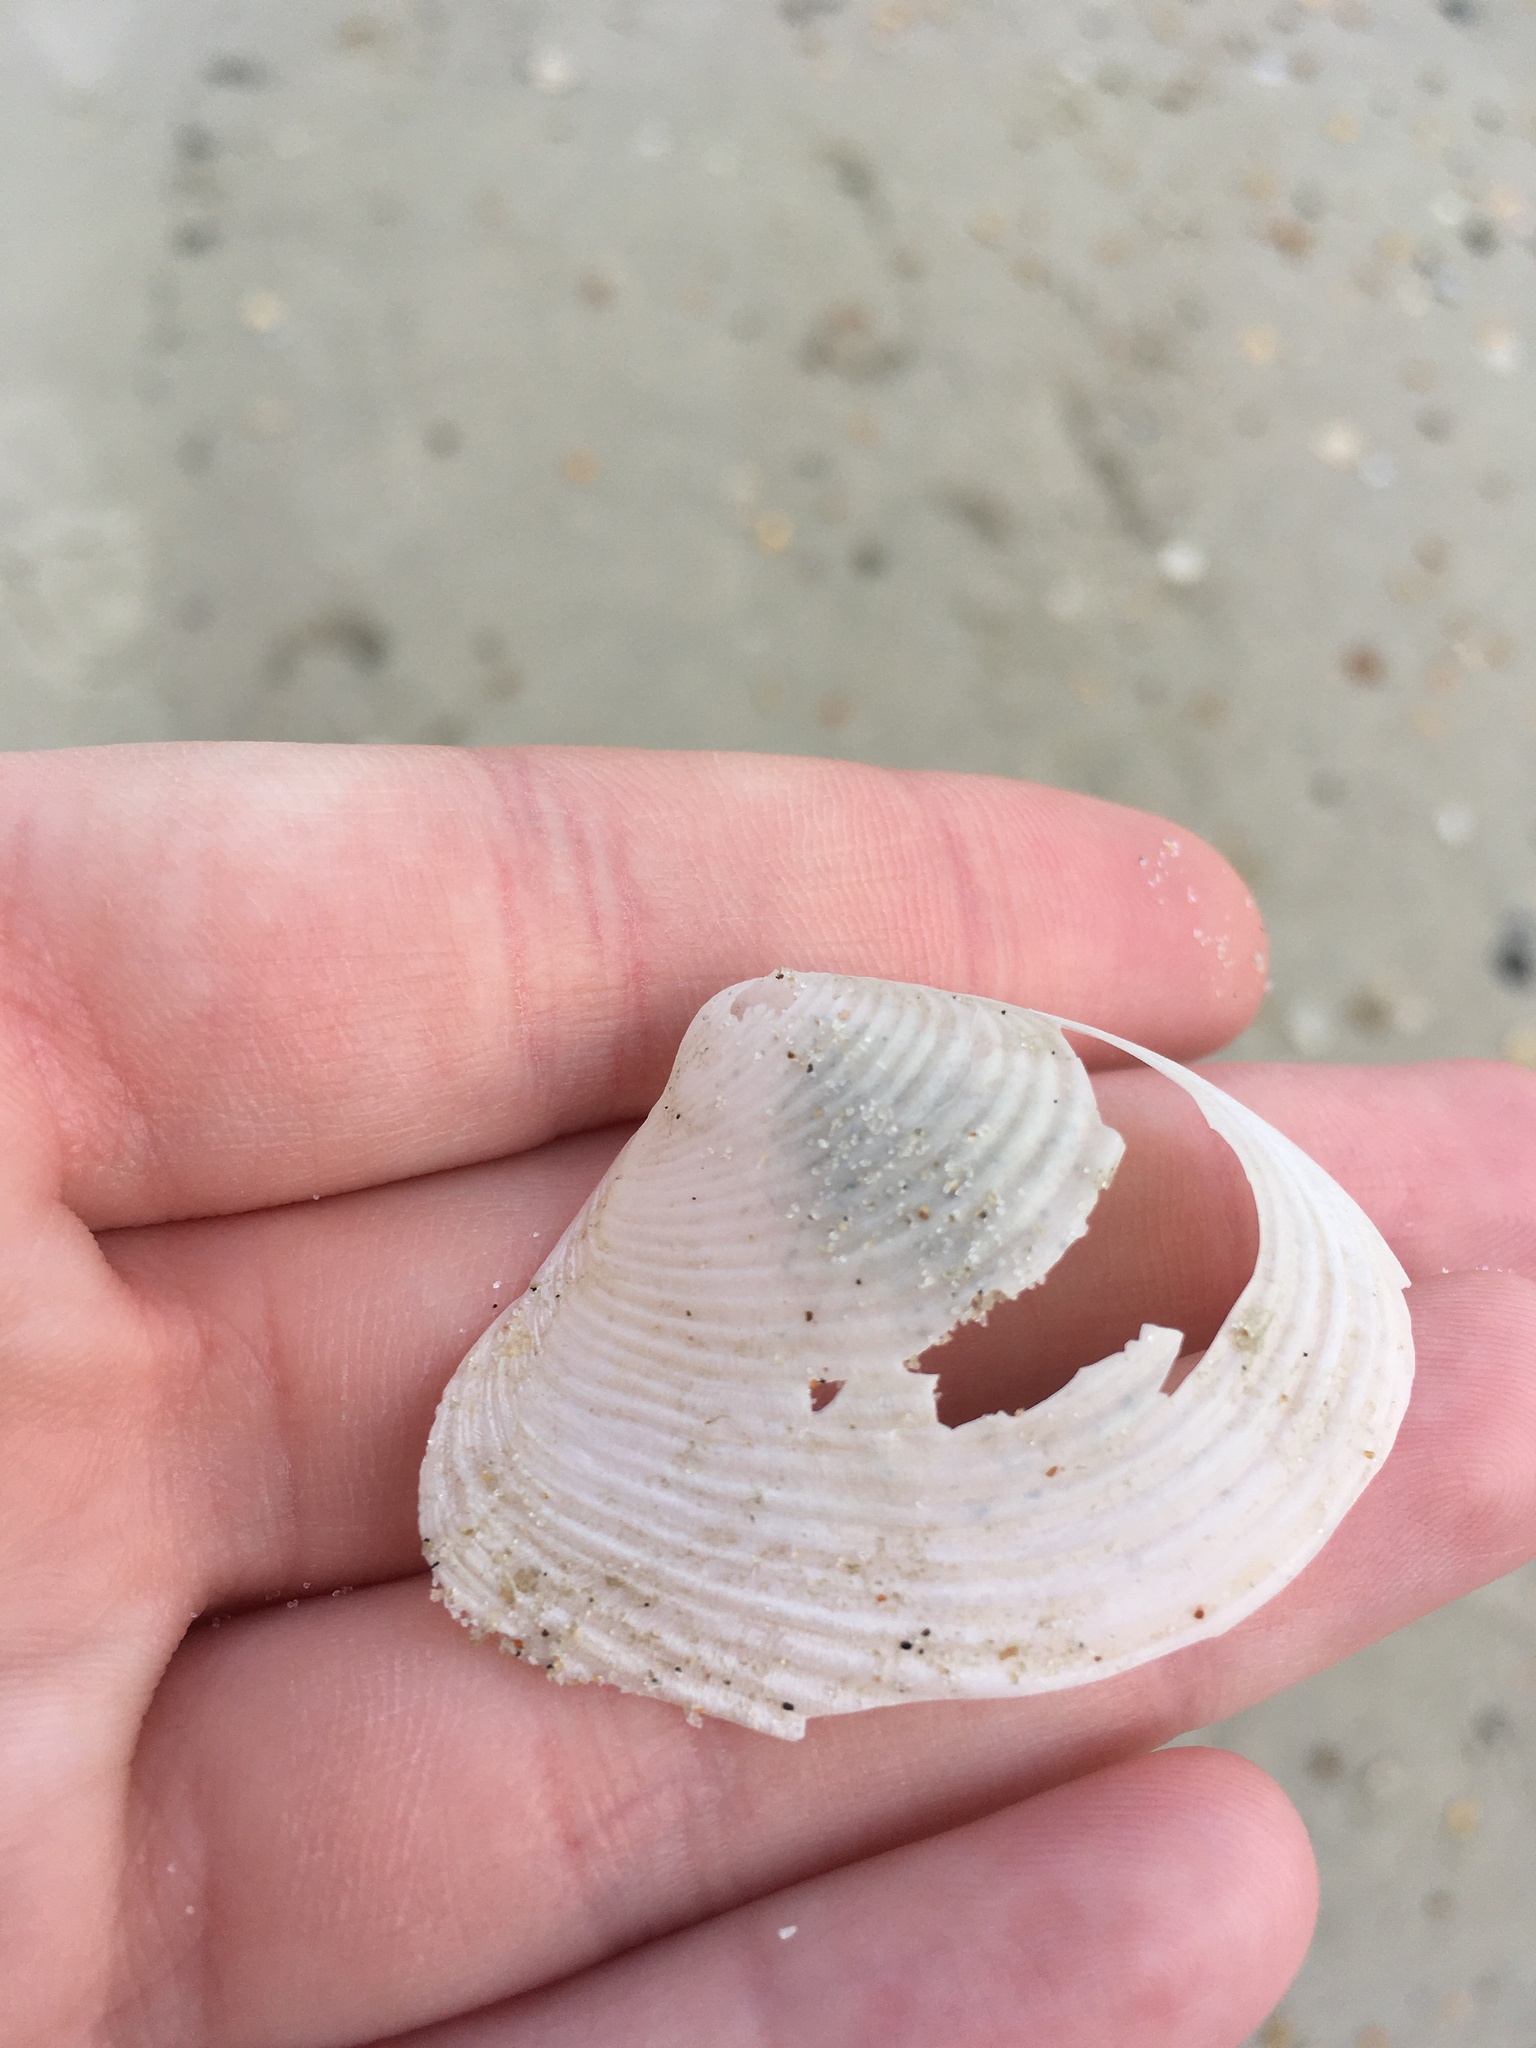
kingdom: Animalia
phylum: Mollusca
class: Bivalvia
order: Venerida
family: Anatinellidae
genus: Raeta
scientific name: Raeta plicatella
